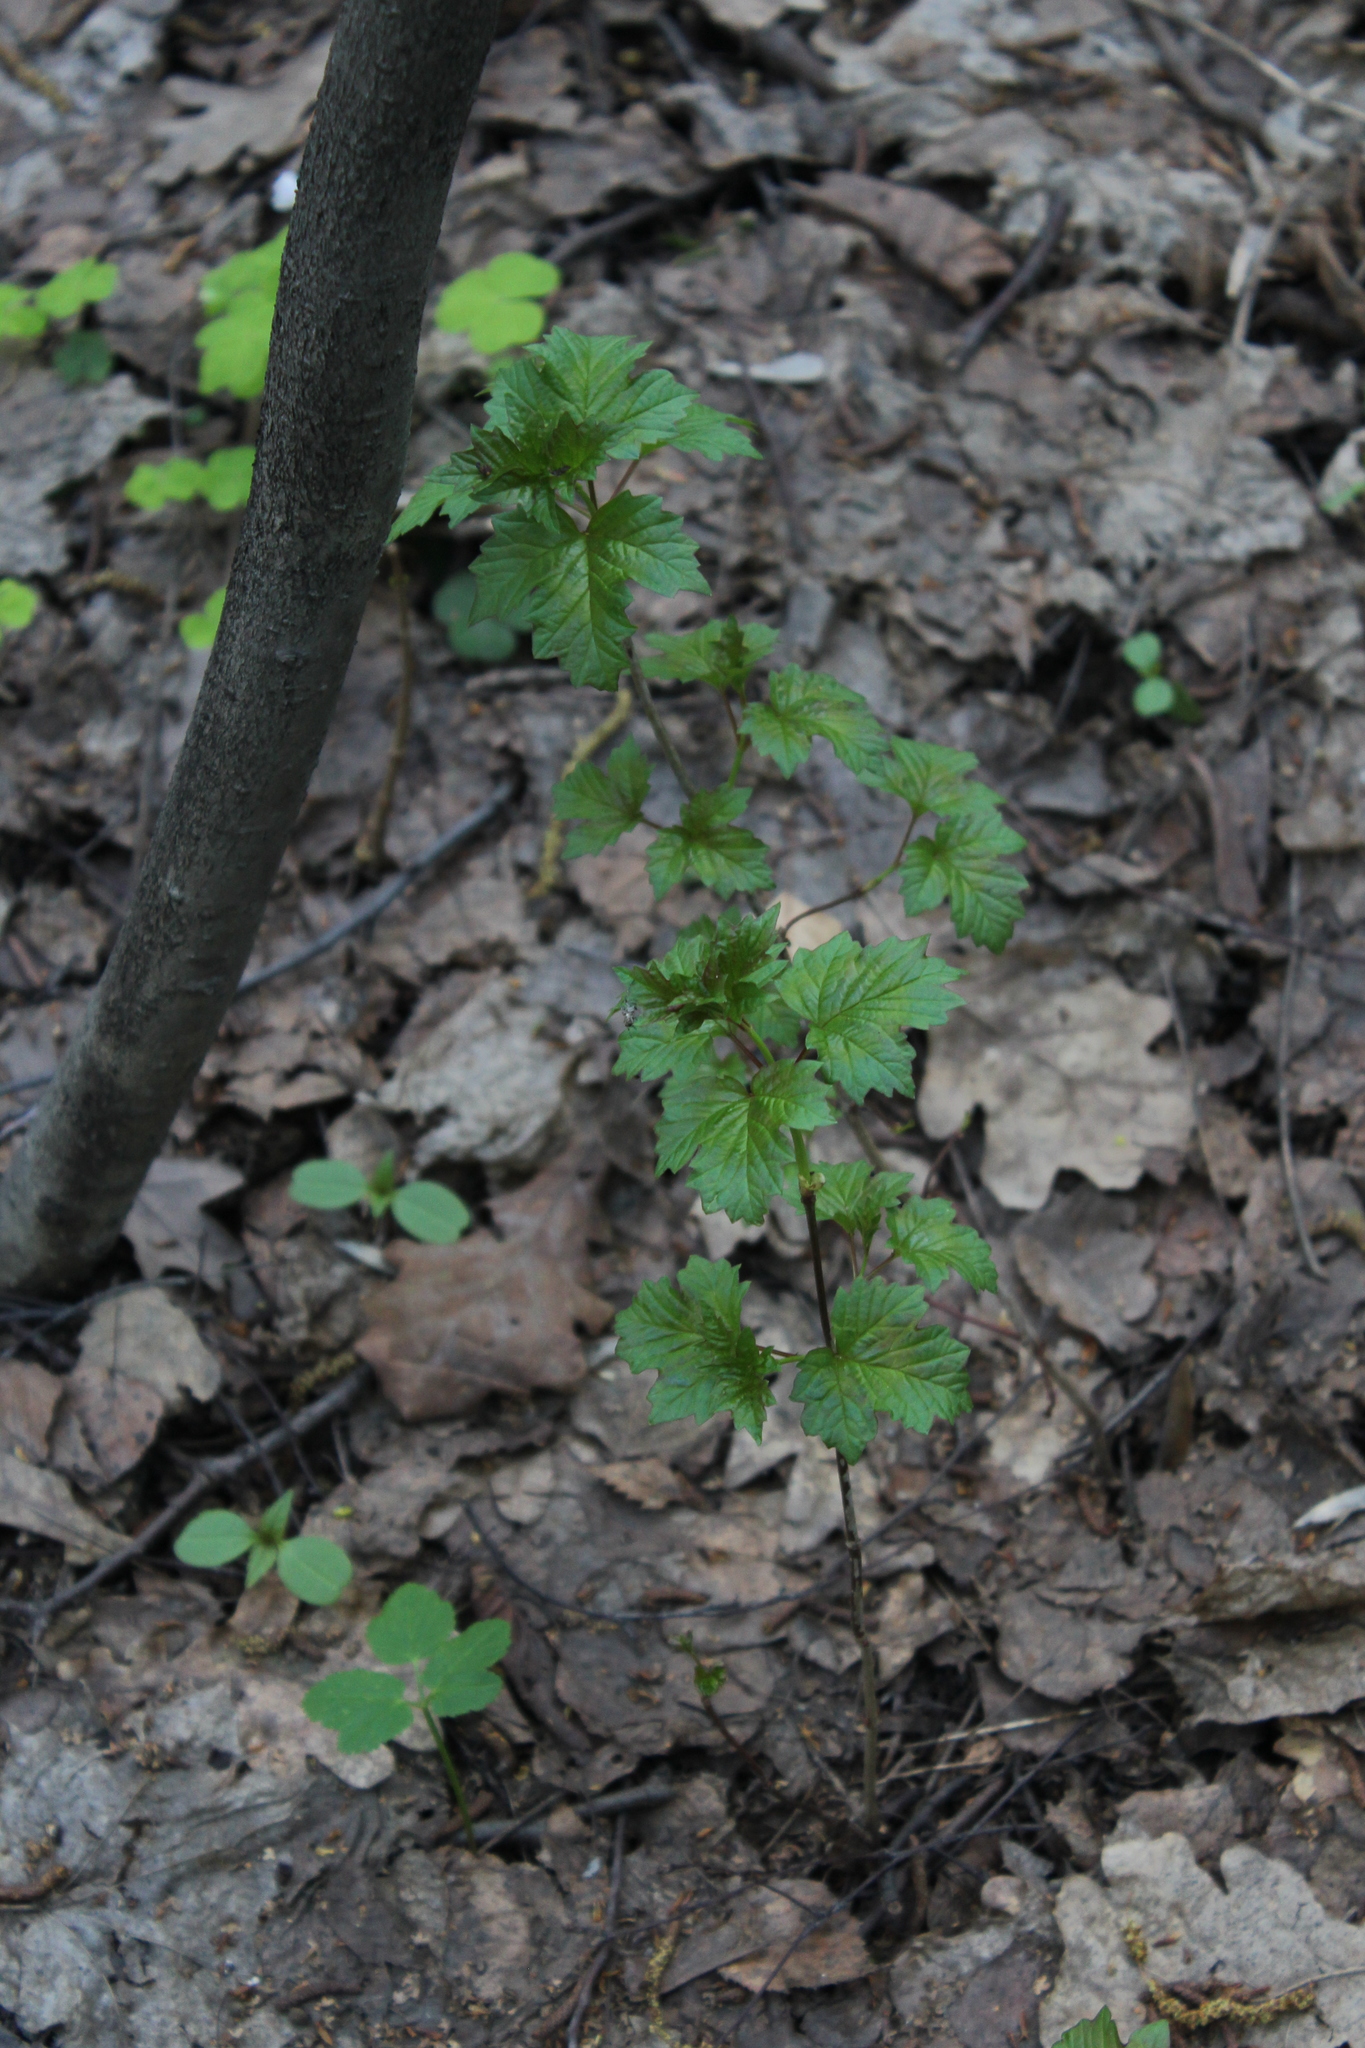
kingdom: Plantae
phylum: Tracheophyta
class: Magnoliopsida
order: Dipsacales
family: Viburnaceae
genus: Viburnum
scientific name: Viburnum opulus
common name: Guelder-rose
